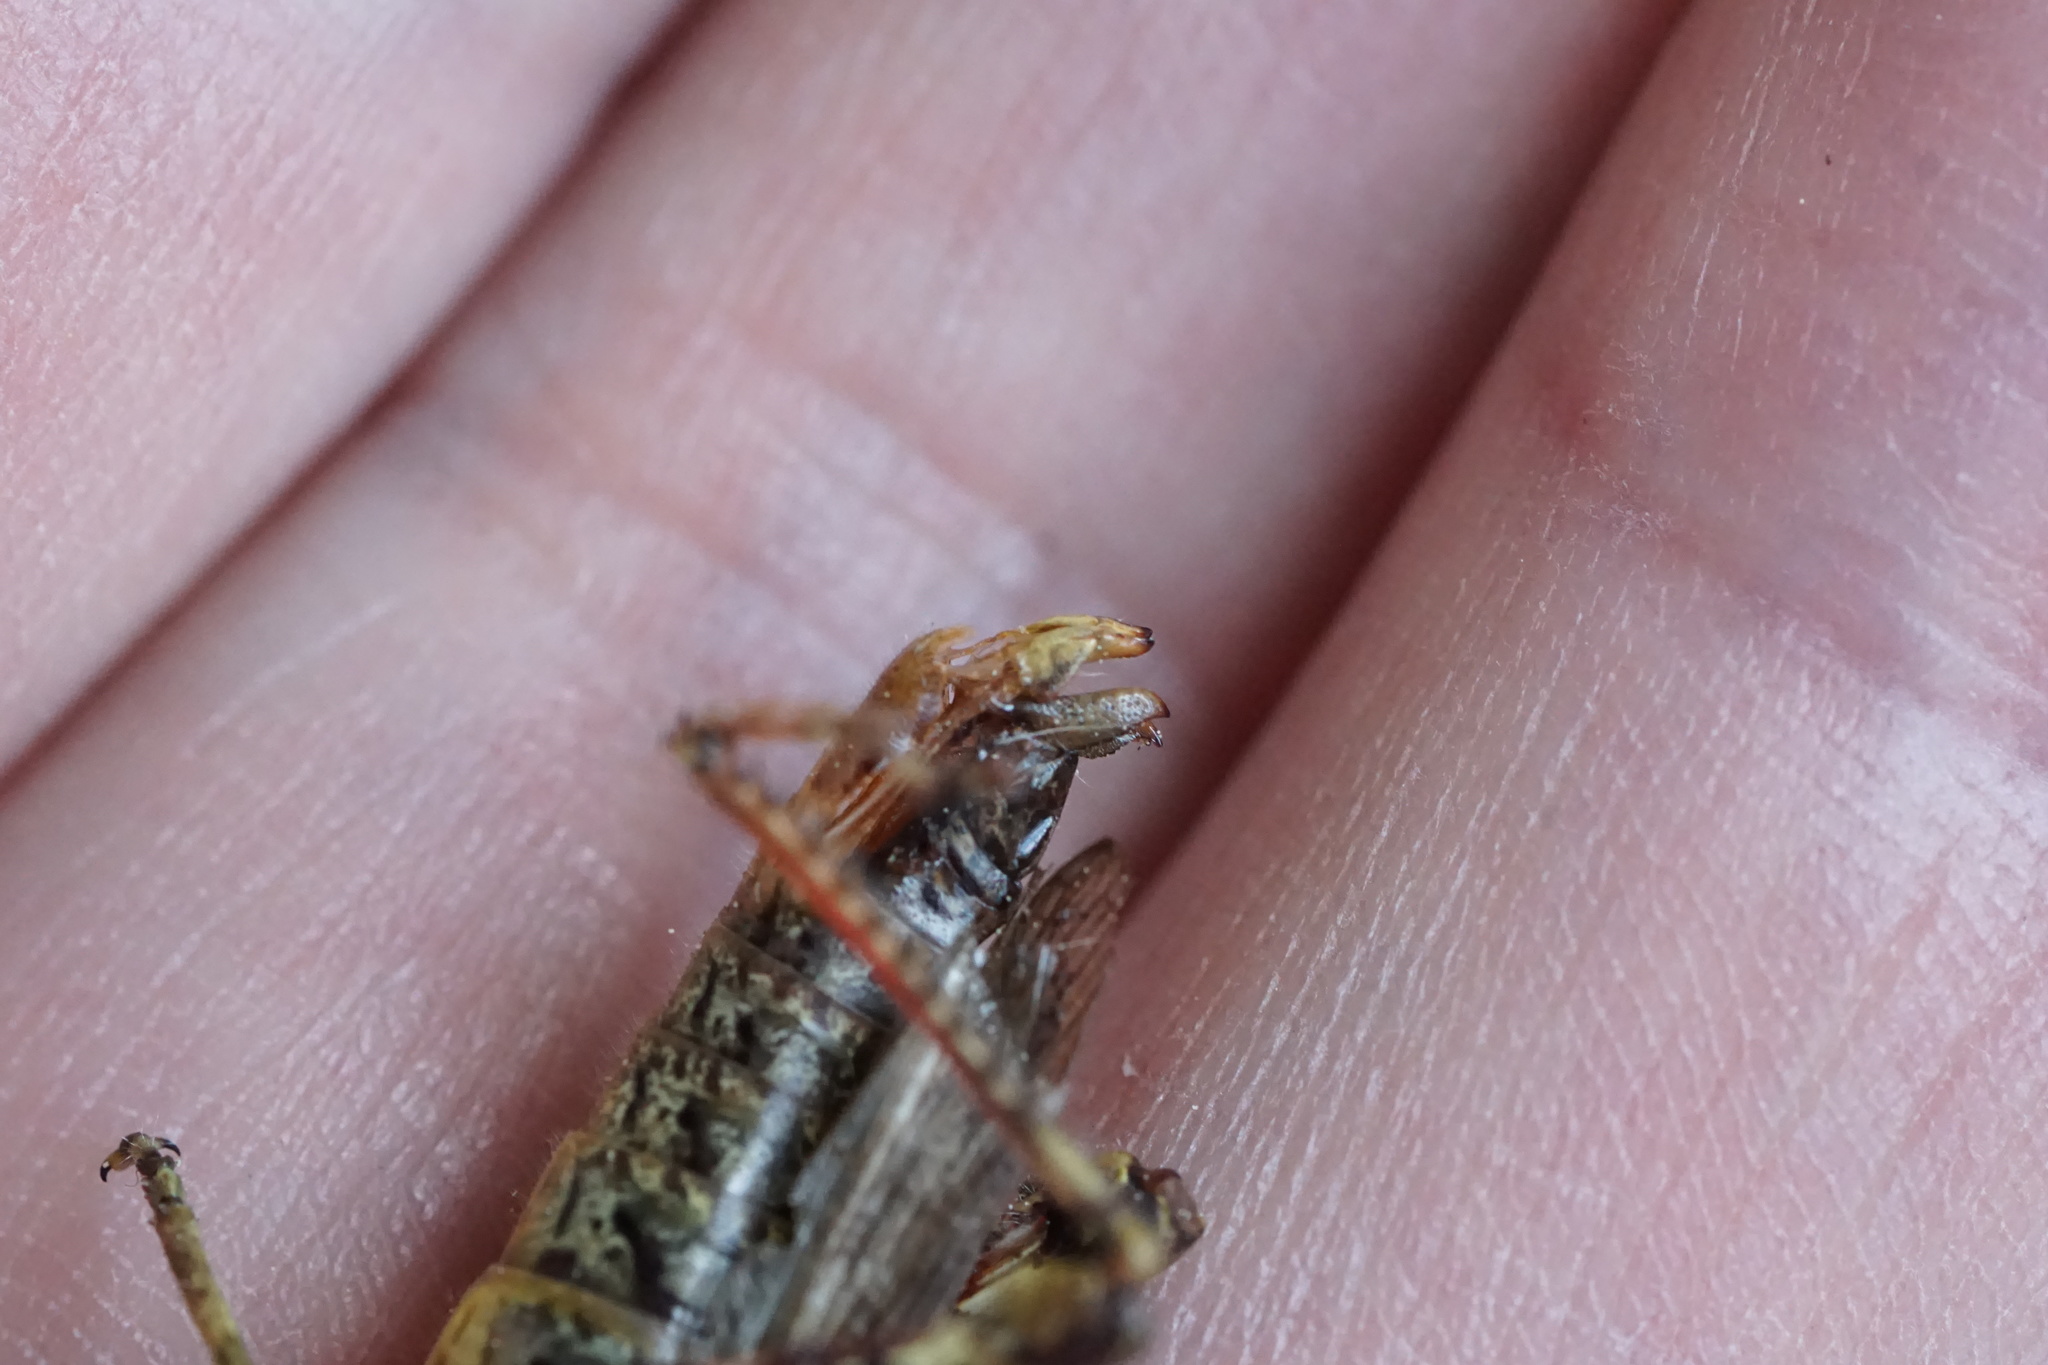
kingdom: Animalia
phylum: Arthropoda
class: Insecta
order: Orthoptera
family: Acrididae
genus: Melanoplus
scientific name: Melanoplus punctulatus
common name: Pine-tree spur-throat grasshopper
